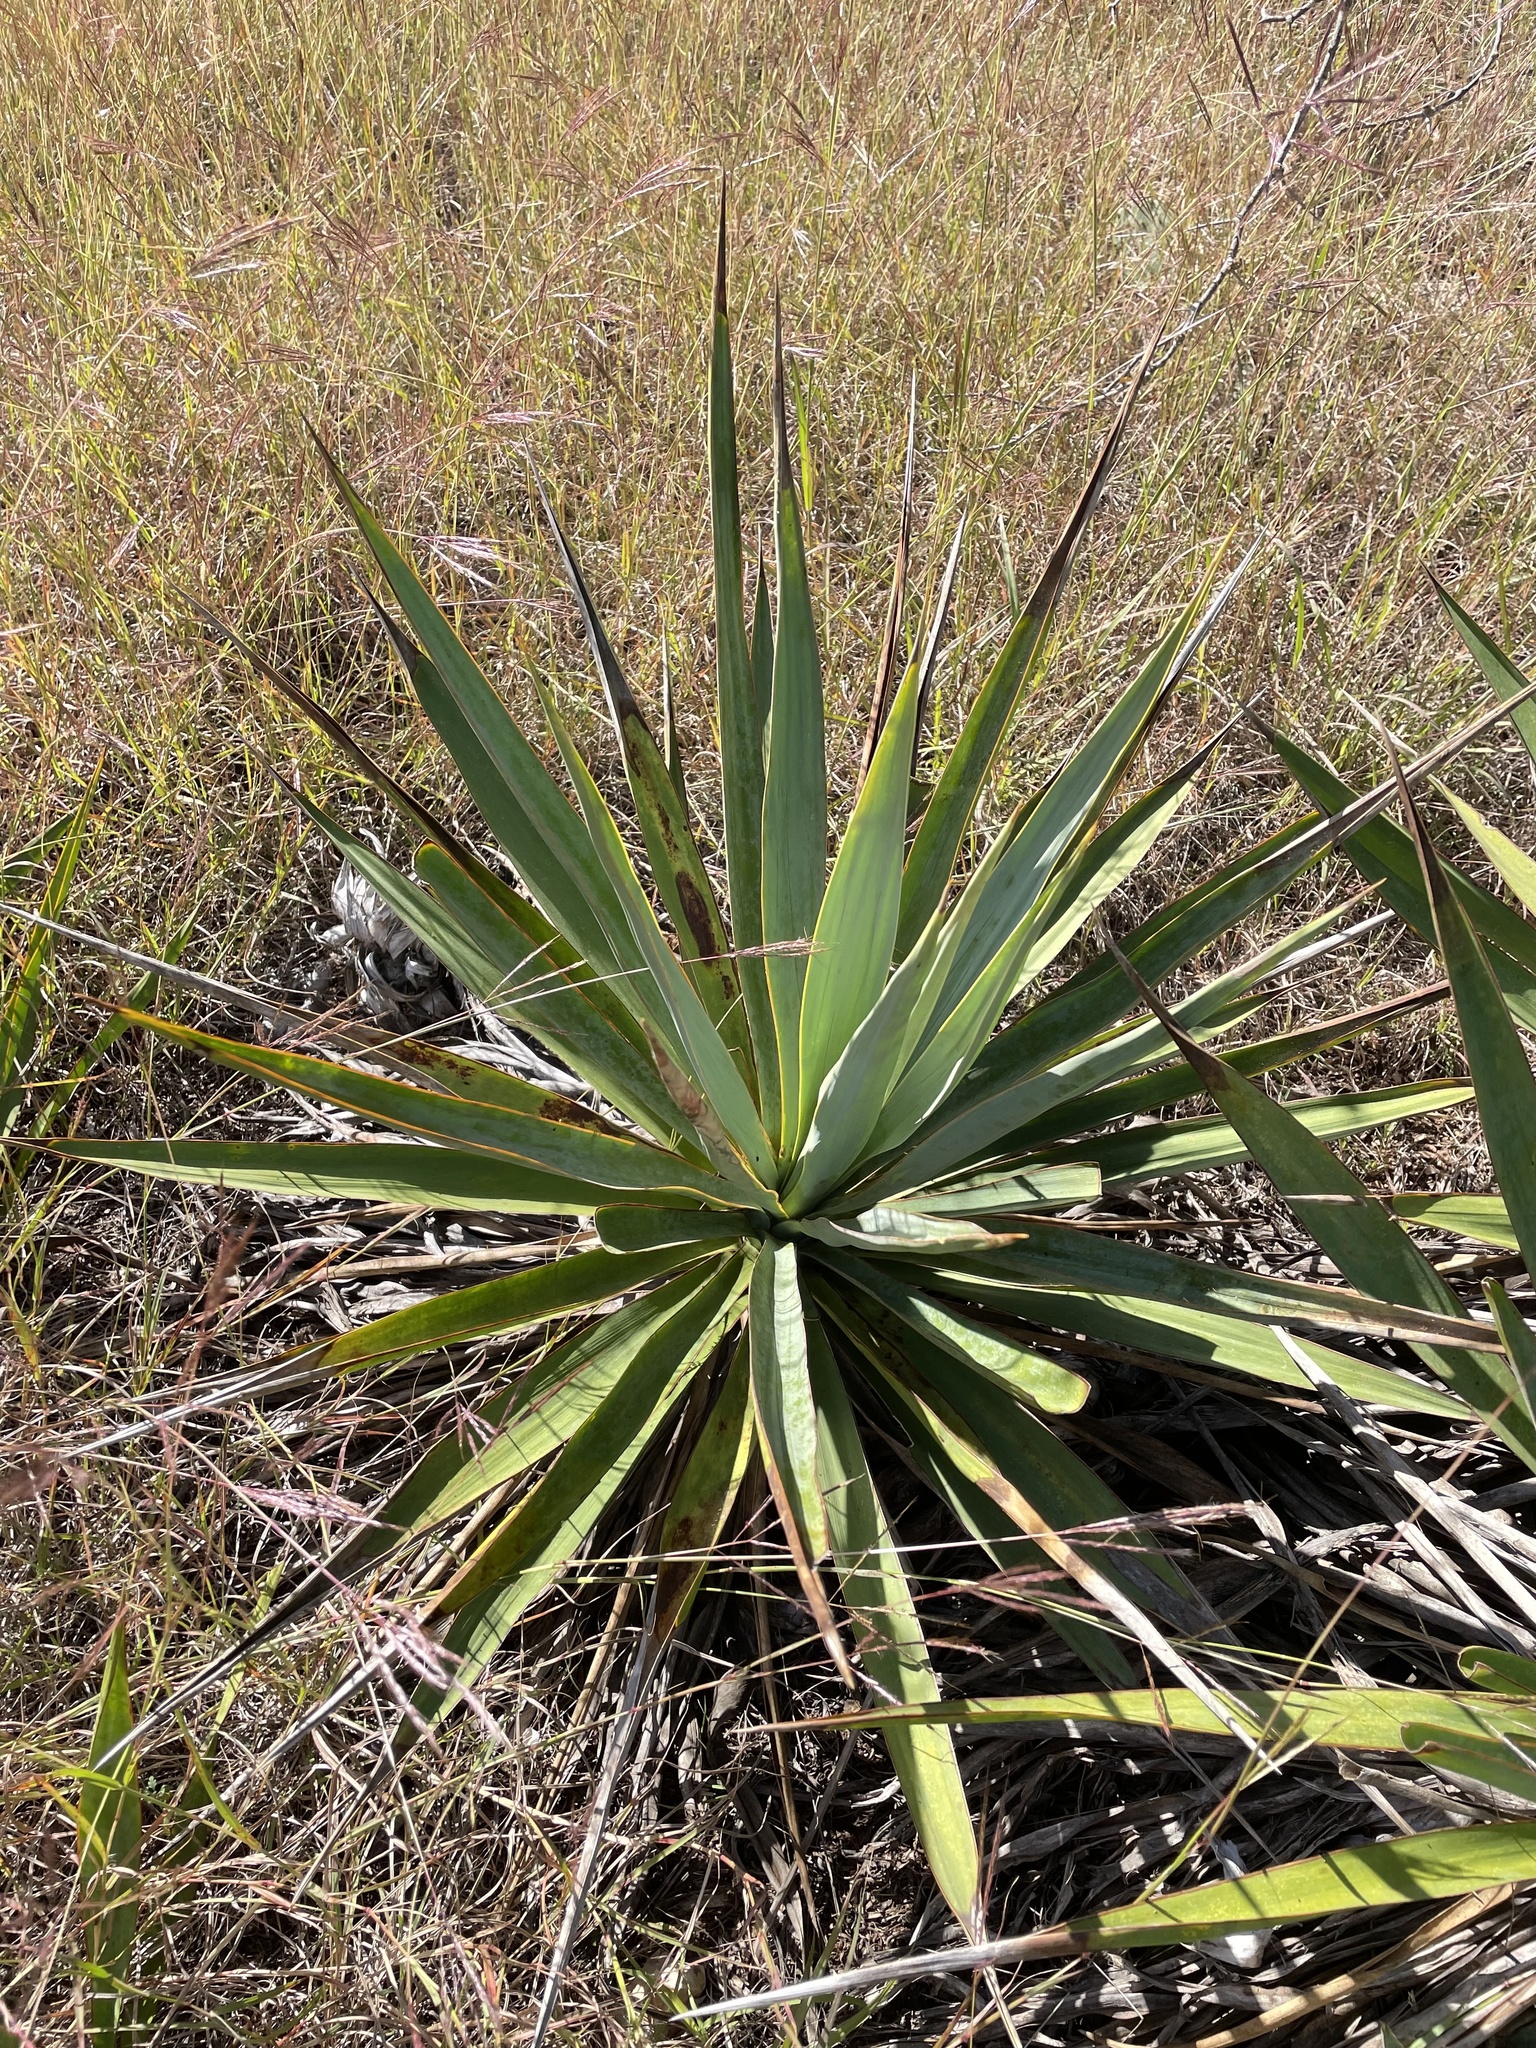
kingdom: Plantae
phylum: Tracheophyta
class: Liliopsida
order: Asparagales
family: Asparagaceae
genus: Yucca
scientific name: Yucca pallida
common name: Pale leaf yucca
